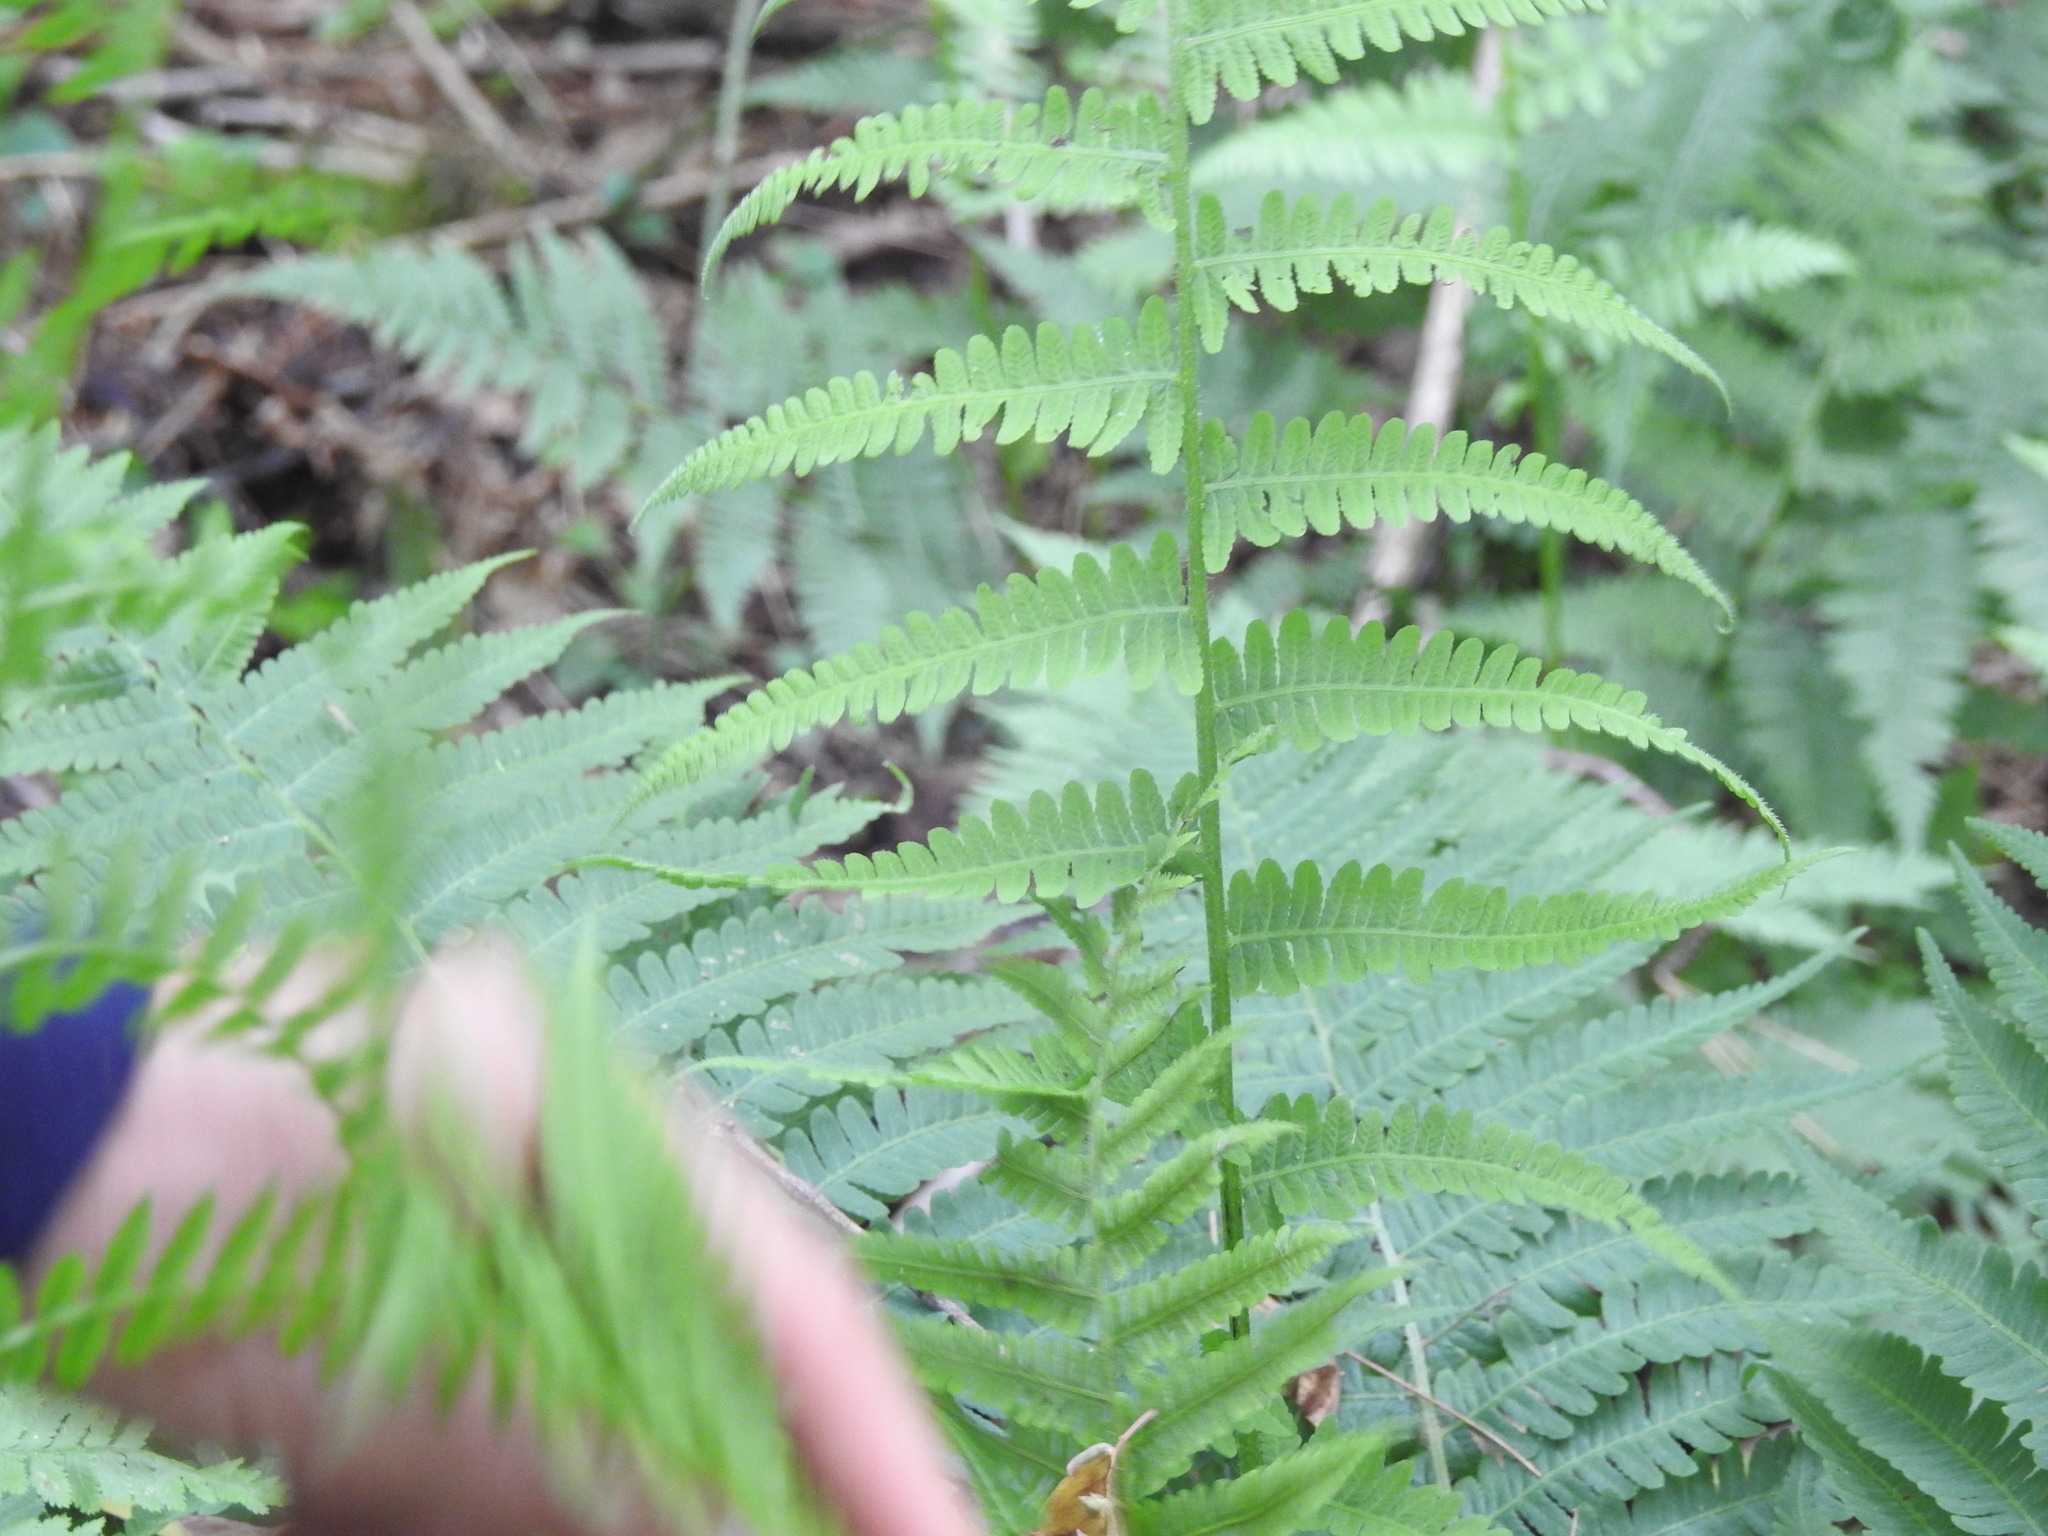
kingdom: Plantae
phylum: Tracheophyta
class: Polypodiopsida
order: Polypodiales
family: Athyriaceae
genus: Deparia
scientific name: Deparia acrostichoides
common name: Silver false spleenwort
